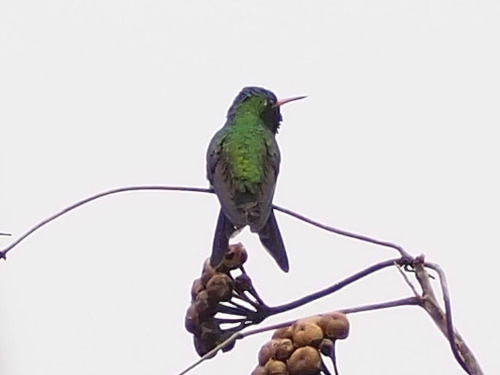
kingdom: Animalia
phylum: Chordata
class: Aves
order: Apodiformes
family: Trochilidae
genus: Cynanthus
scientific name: Cynanthus canivetii
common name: Canivet's emerald
